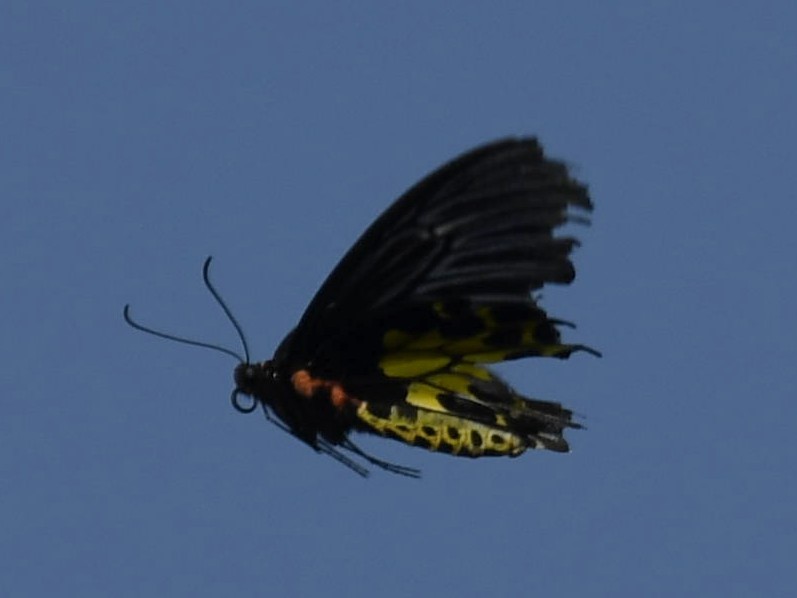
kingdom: Animalia
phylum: Arthropoda
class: Insecta
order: Lepidoptera
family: Papilionidae
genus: Troides
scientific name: Troides aeacus
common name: Golden birdwing
